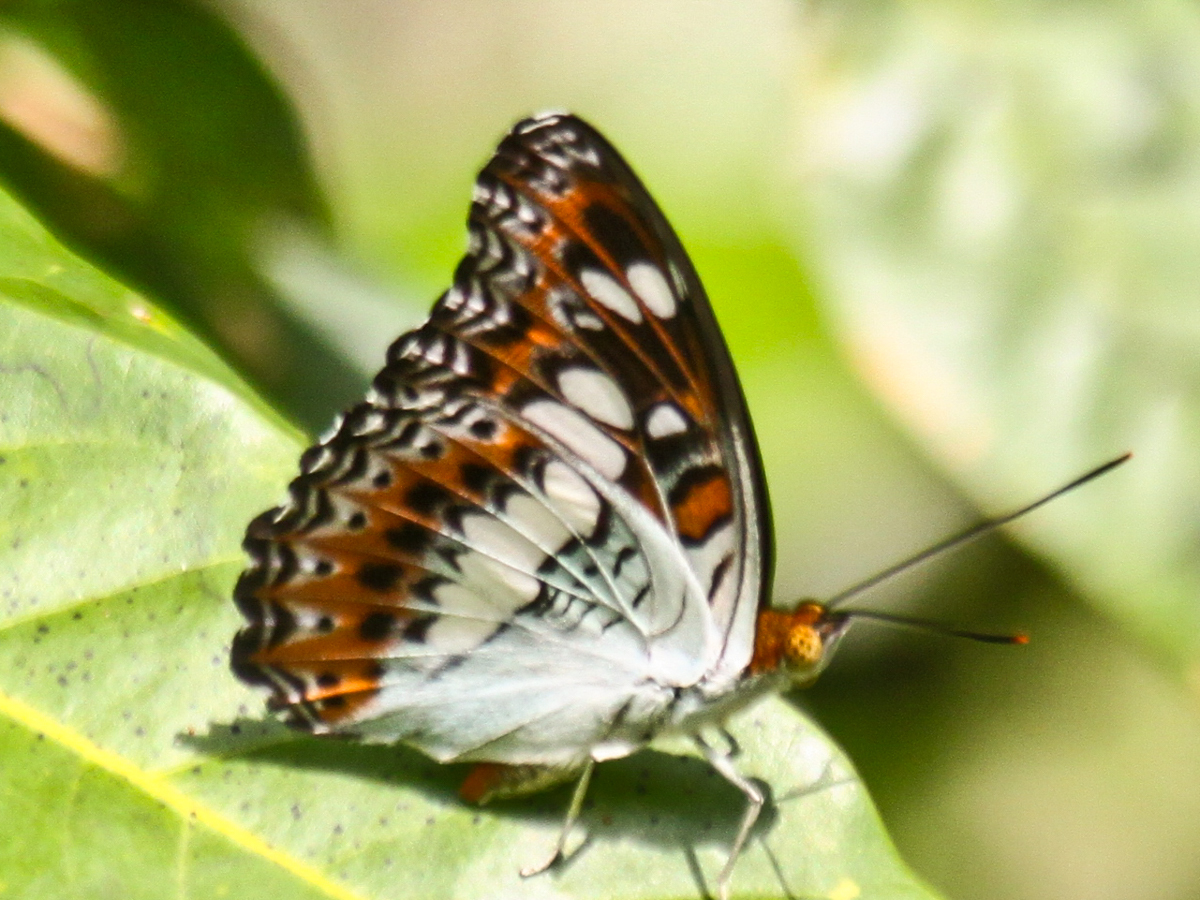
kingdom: Animalia
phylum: Arthropoda
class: Insecta
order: Lepidoptera
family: Nymphalidae
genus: Limenitis
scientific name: Limenitis Moduza procris
